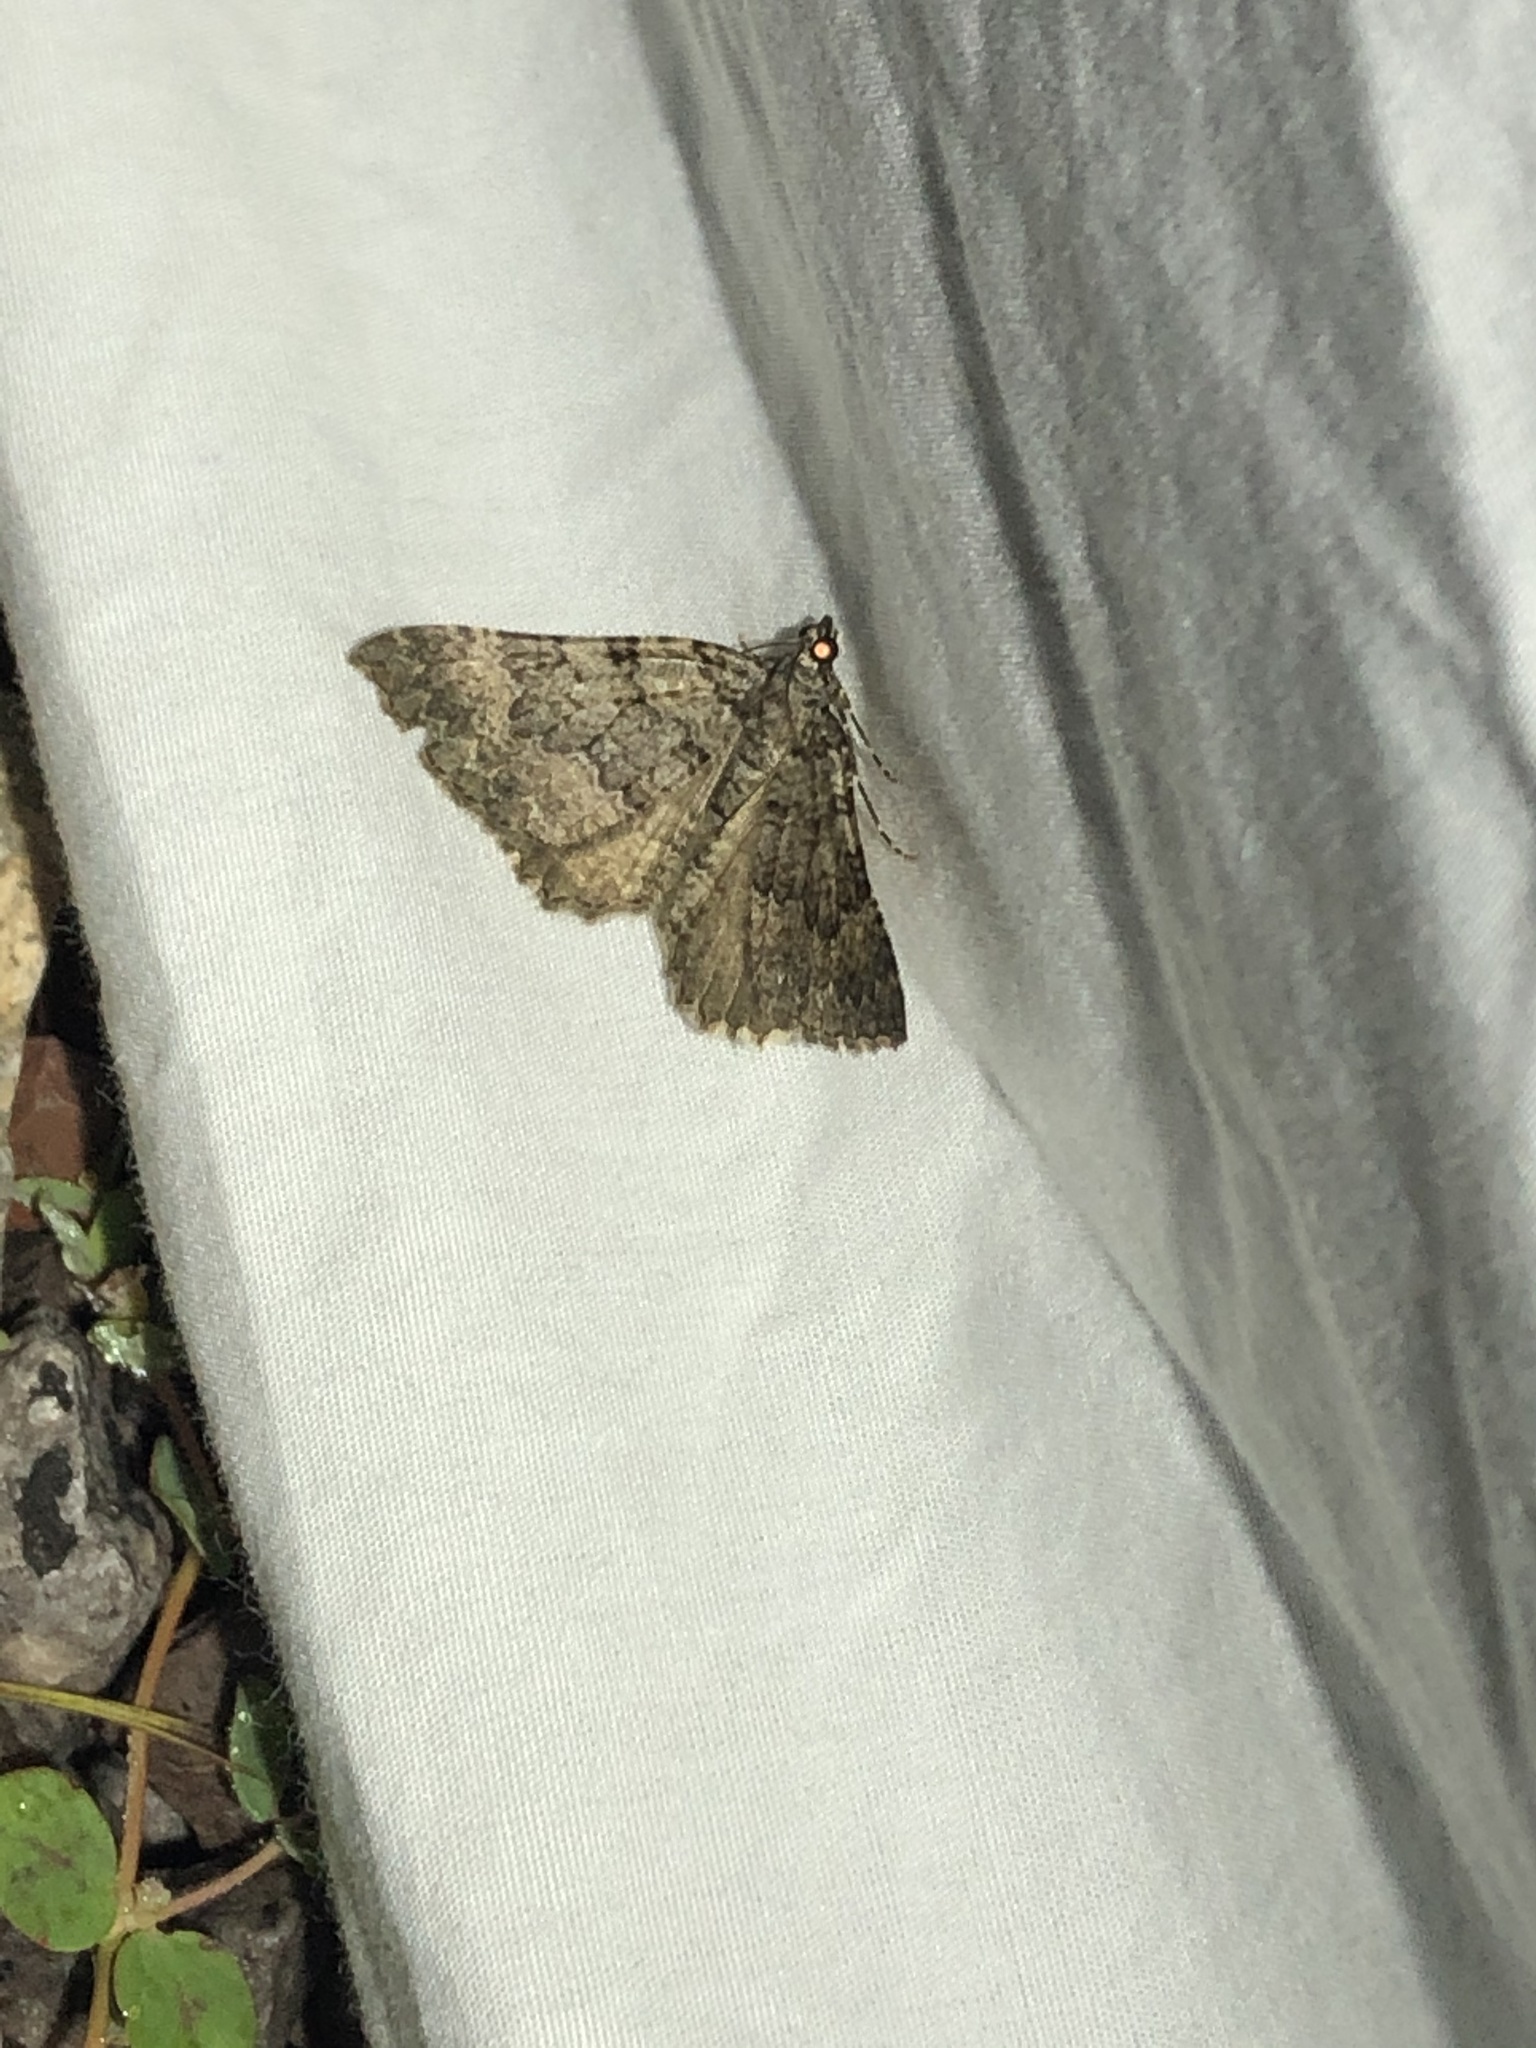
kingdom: Animalia
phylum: Arthropoda
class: Insecta
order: Lepidoptera
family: Geometridae
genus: Archirhoe
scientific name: Archirhoe neomexicana
